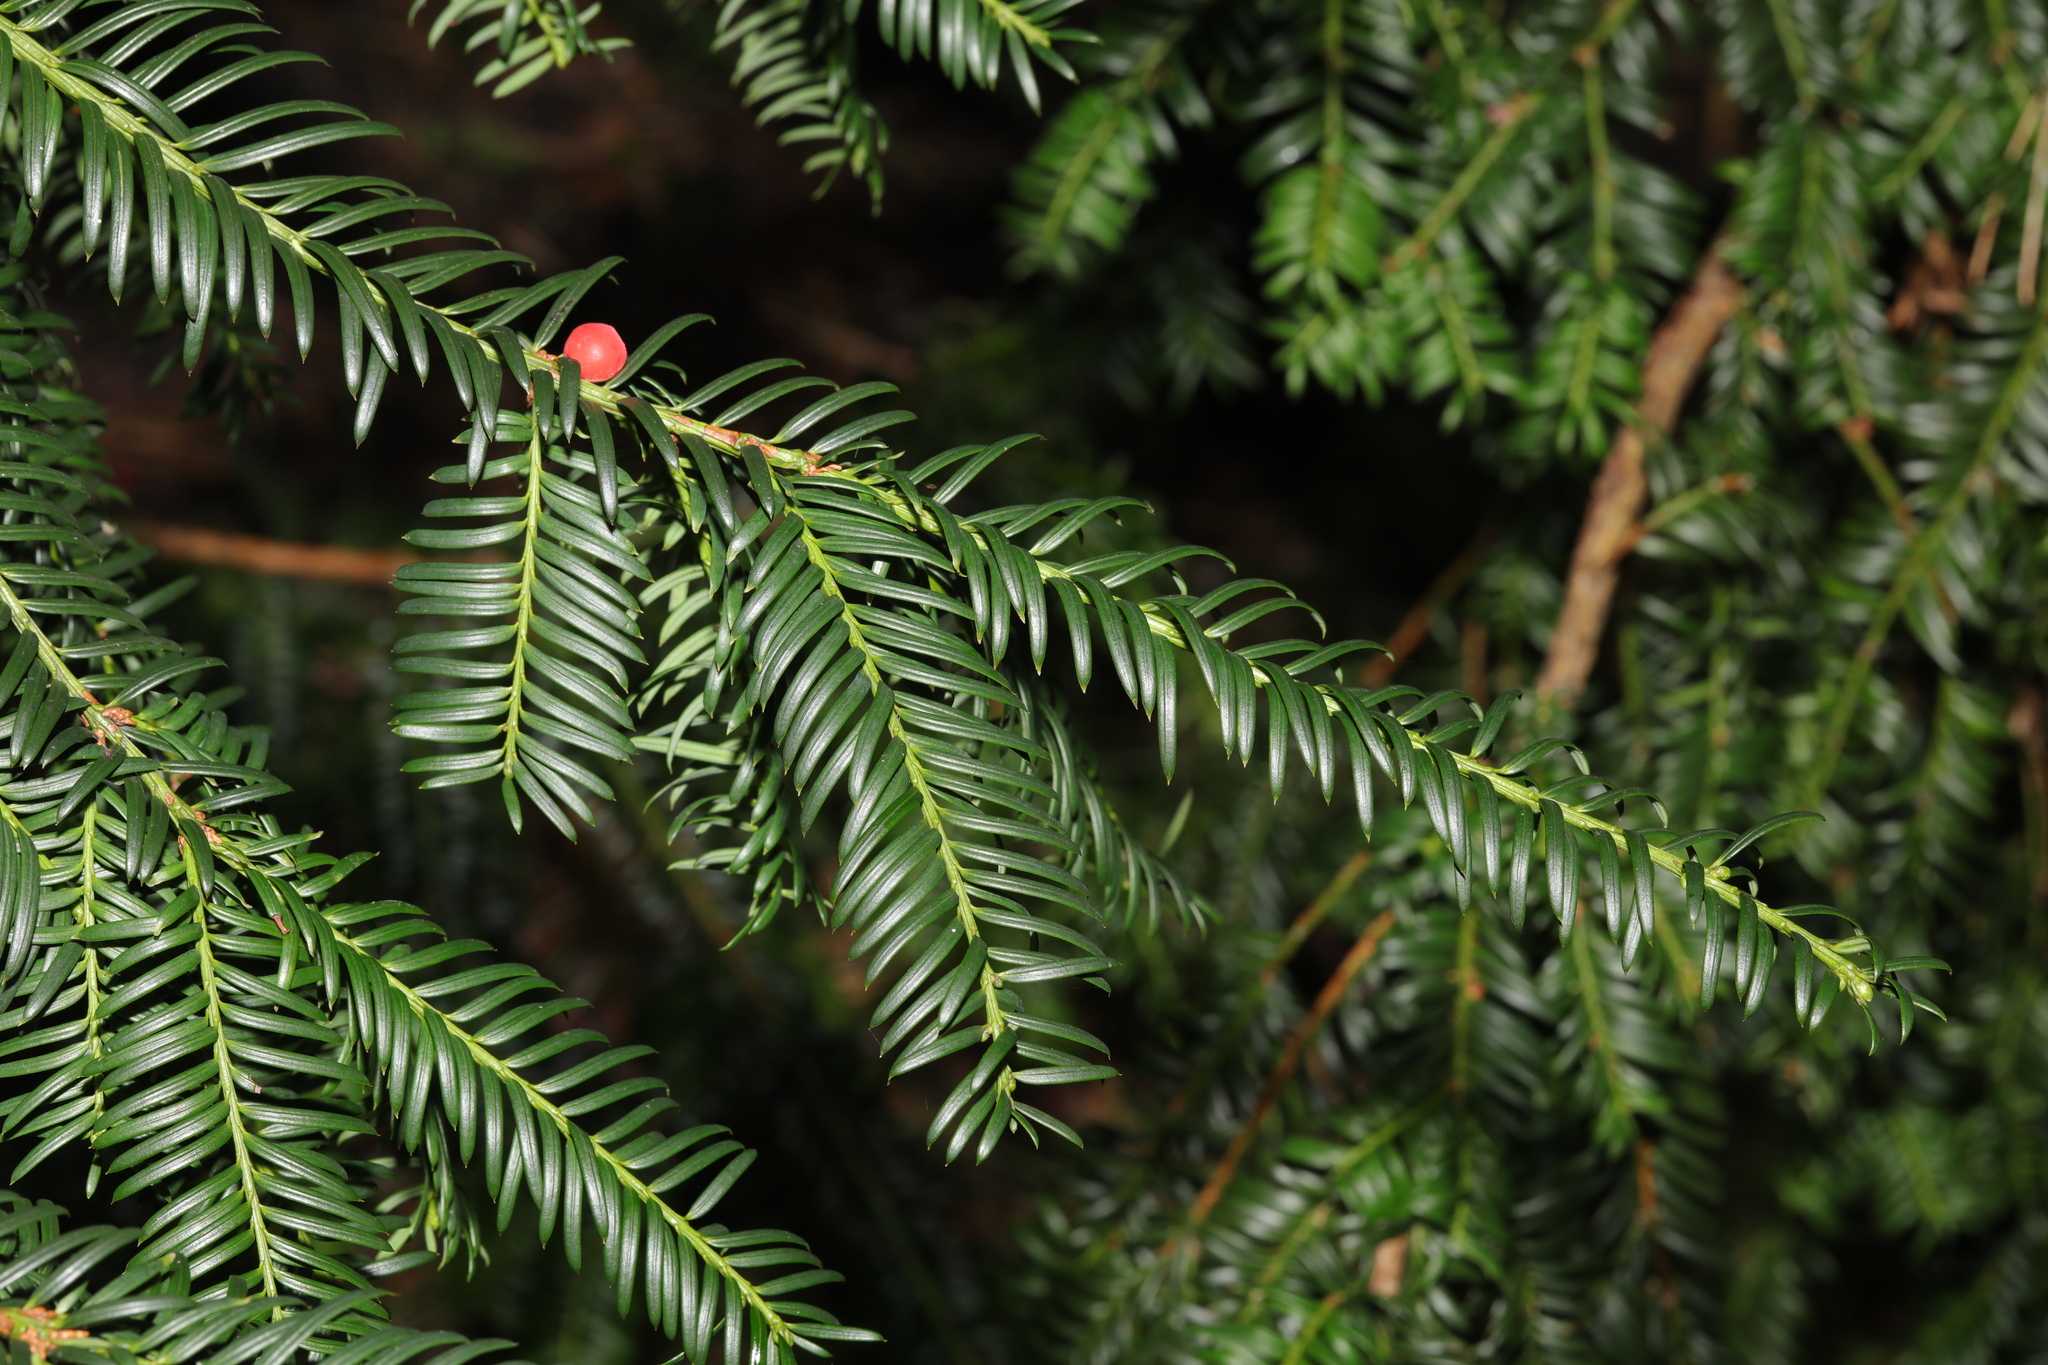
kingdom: Plantae
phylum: Tracheophyta
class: Pinopsida
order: Pinales
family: Taxaceae
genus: Taxus
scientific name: Taxus baccata
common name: Yew
